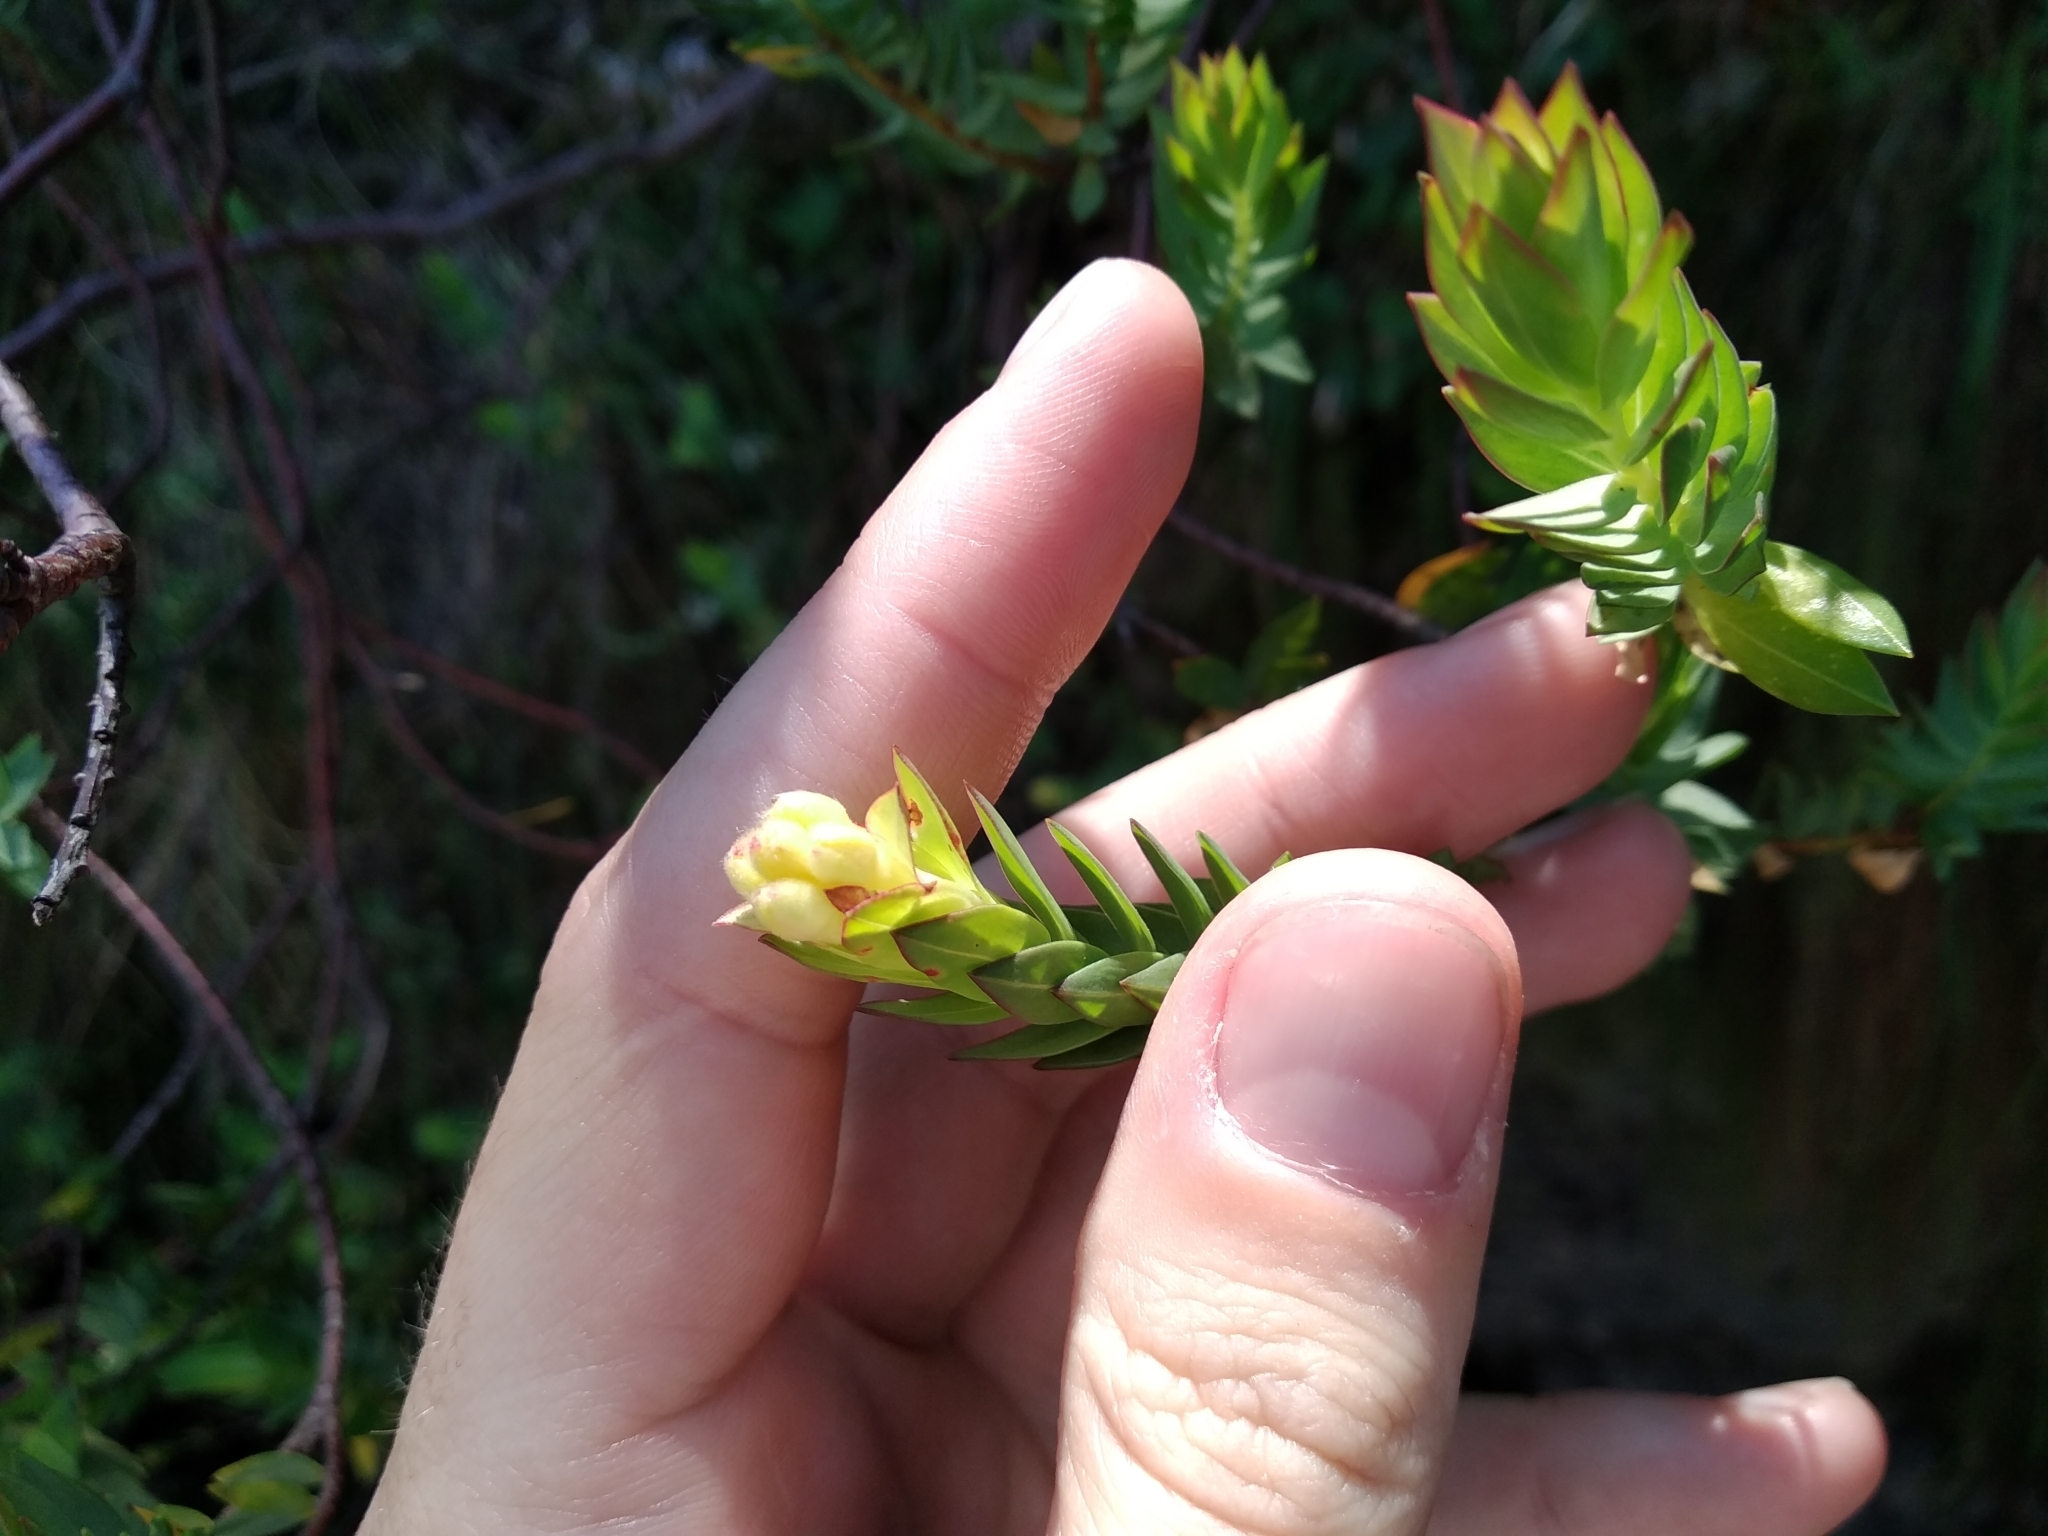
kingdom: Plantae
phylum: Tracheophyta
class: Magnoliopsida
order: Malvales
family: Thymelaeaceae
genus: Gnidia
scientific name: Gnidia oppositifolia
